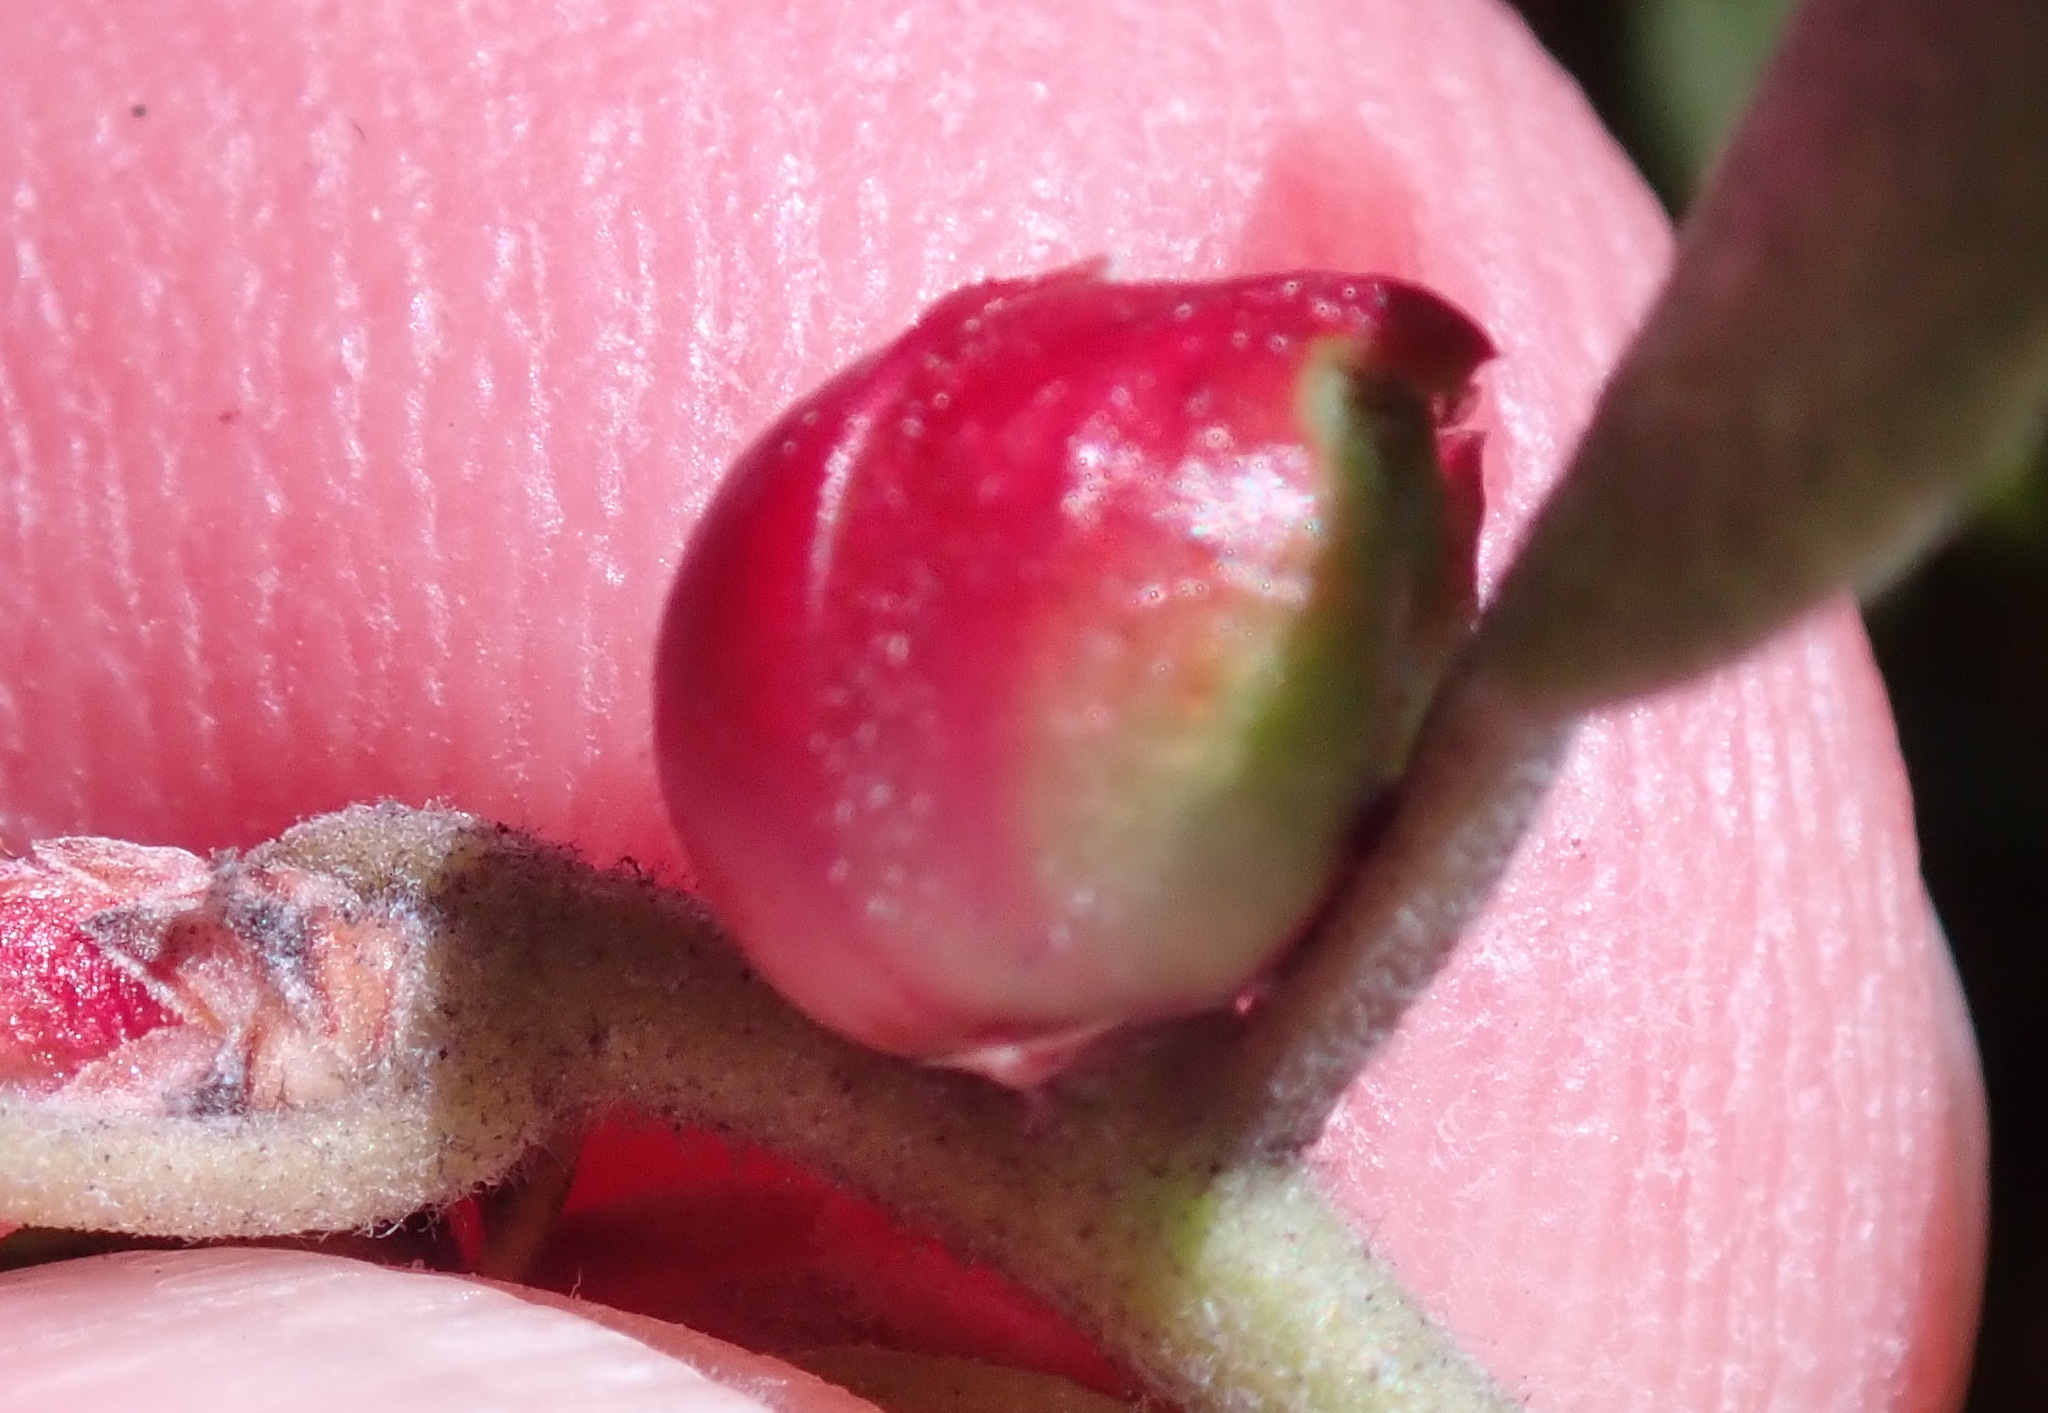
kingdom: Animalia
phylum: Arthropoda
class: Insecta
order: Hemiptera
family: Aphididae
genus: Tamalia
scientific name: Tamalia coweni
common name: Manzanita leafgall aphid
